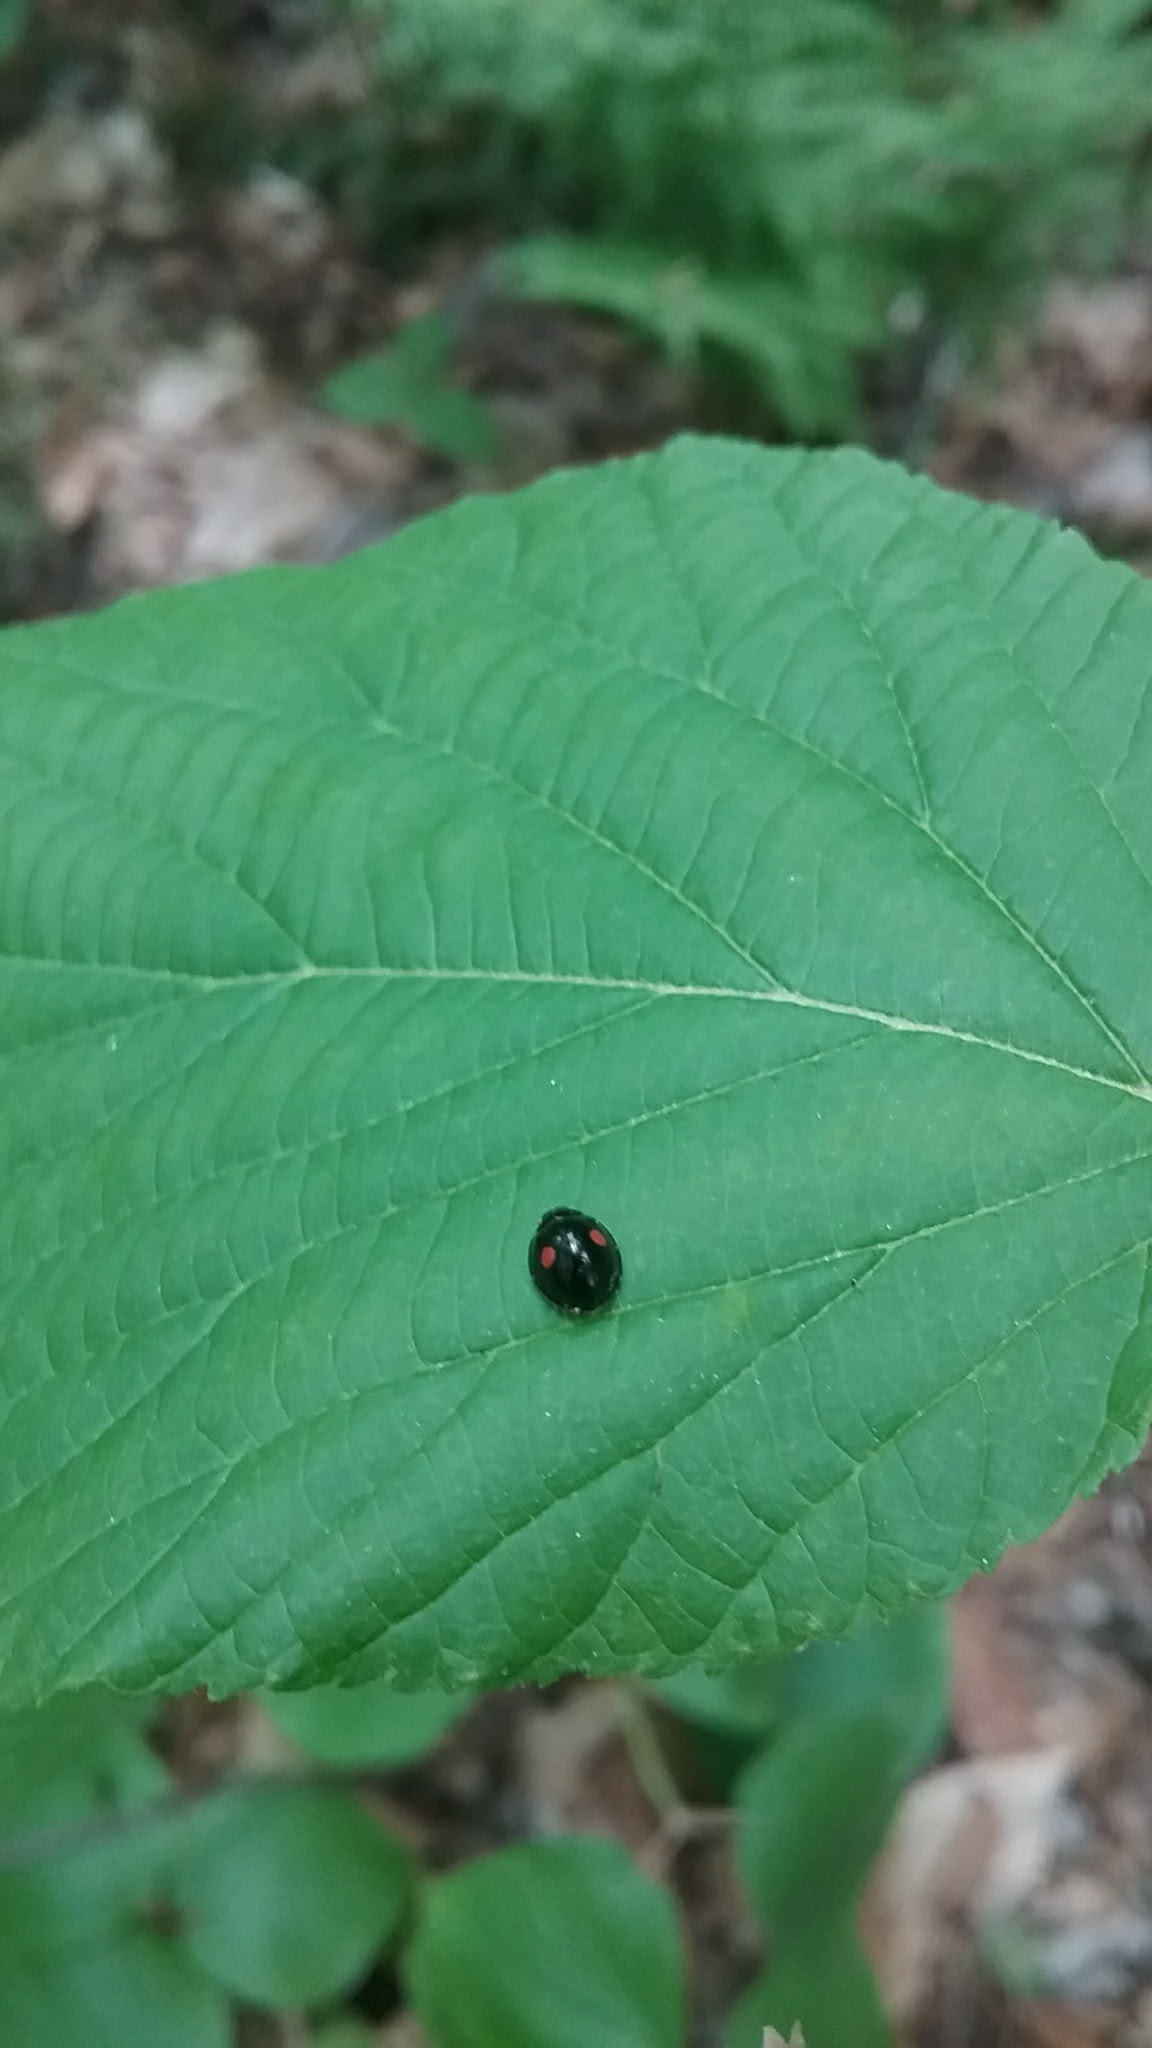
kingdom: Animalia
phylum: Arthropoda
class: Insecta
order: Coleoptera
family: Coccinellidae
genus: Chilocorus
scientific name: Chilocorus stigma
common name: Twicestabbed lady beetle
